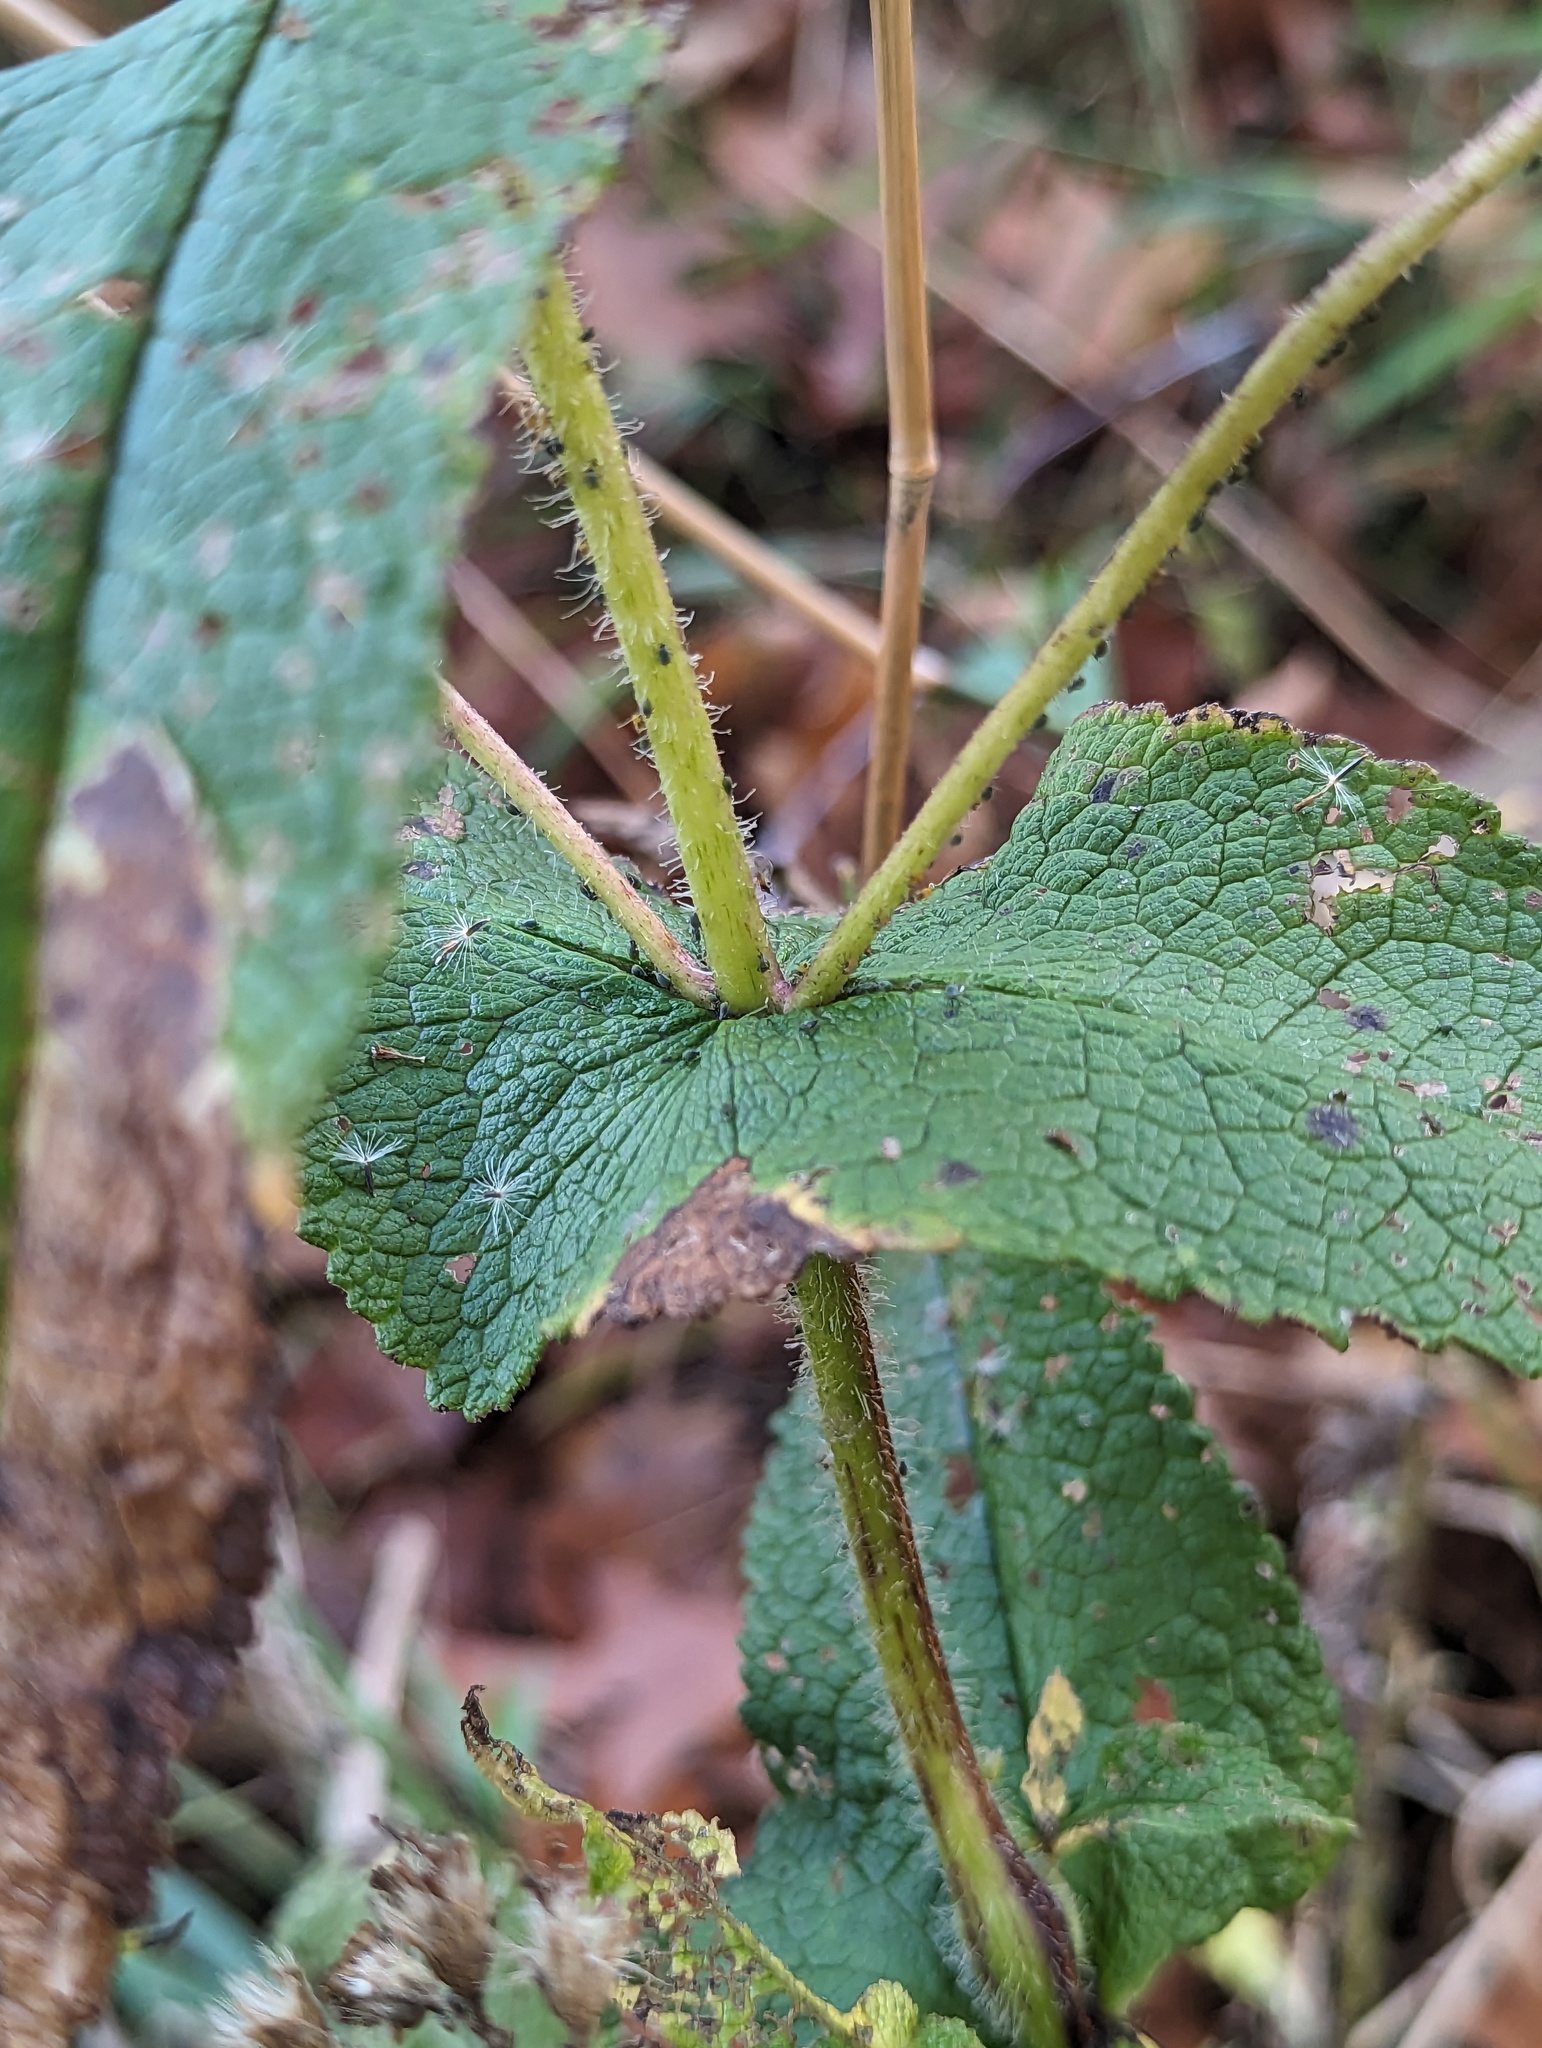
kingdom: Plantae
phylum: Tracheophyta
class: Magnoliopsida
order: Asterales
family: Asteraceae
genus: Eupatorium
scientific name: Eupatorium perfoliatum
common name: Boneset
